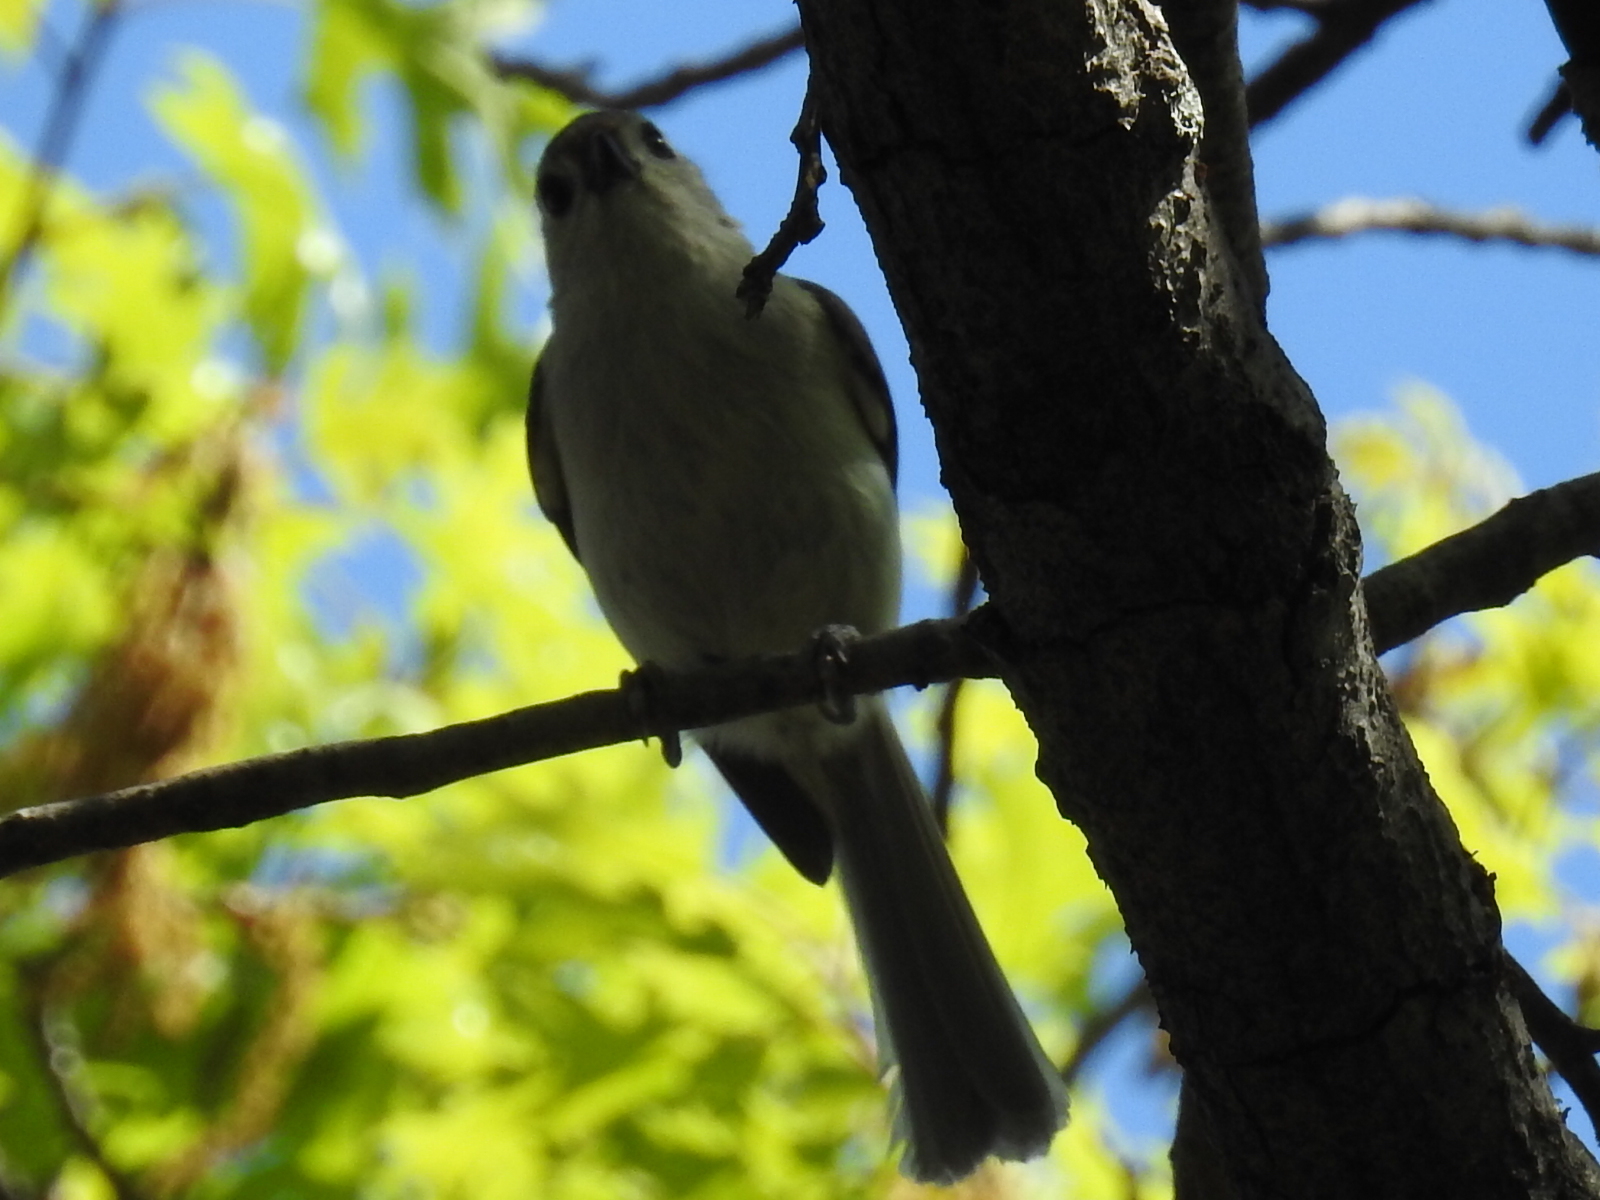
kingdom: Animalia
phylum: Chordata
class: Aves
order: Passeriformes
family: Paridae
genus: Baeolophus
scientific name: Baeolophus bicolor
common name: Tufted titmouse
